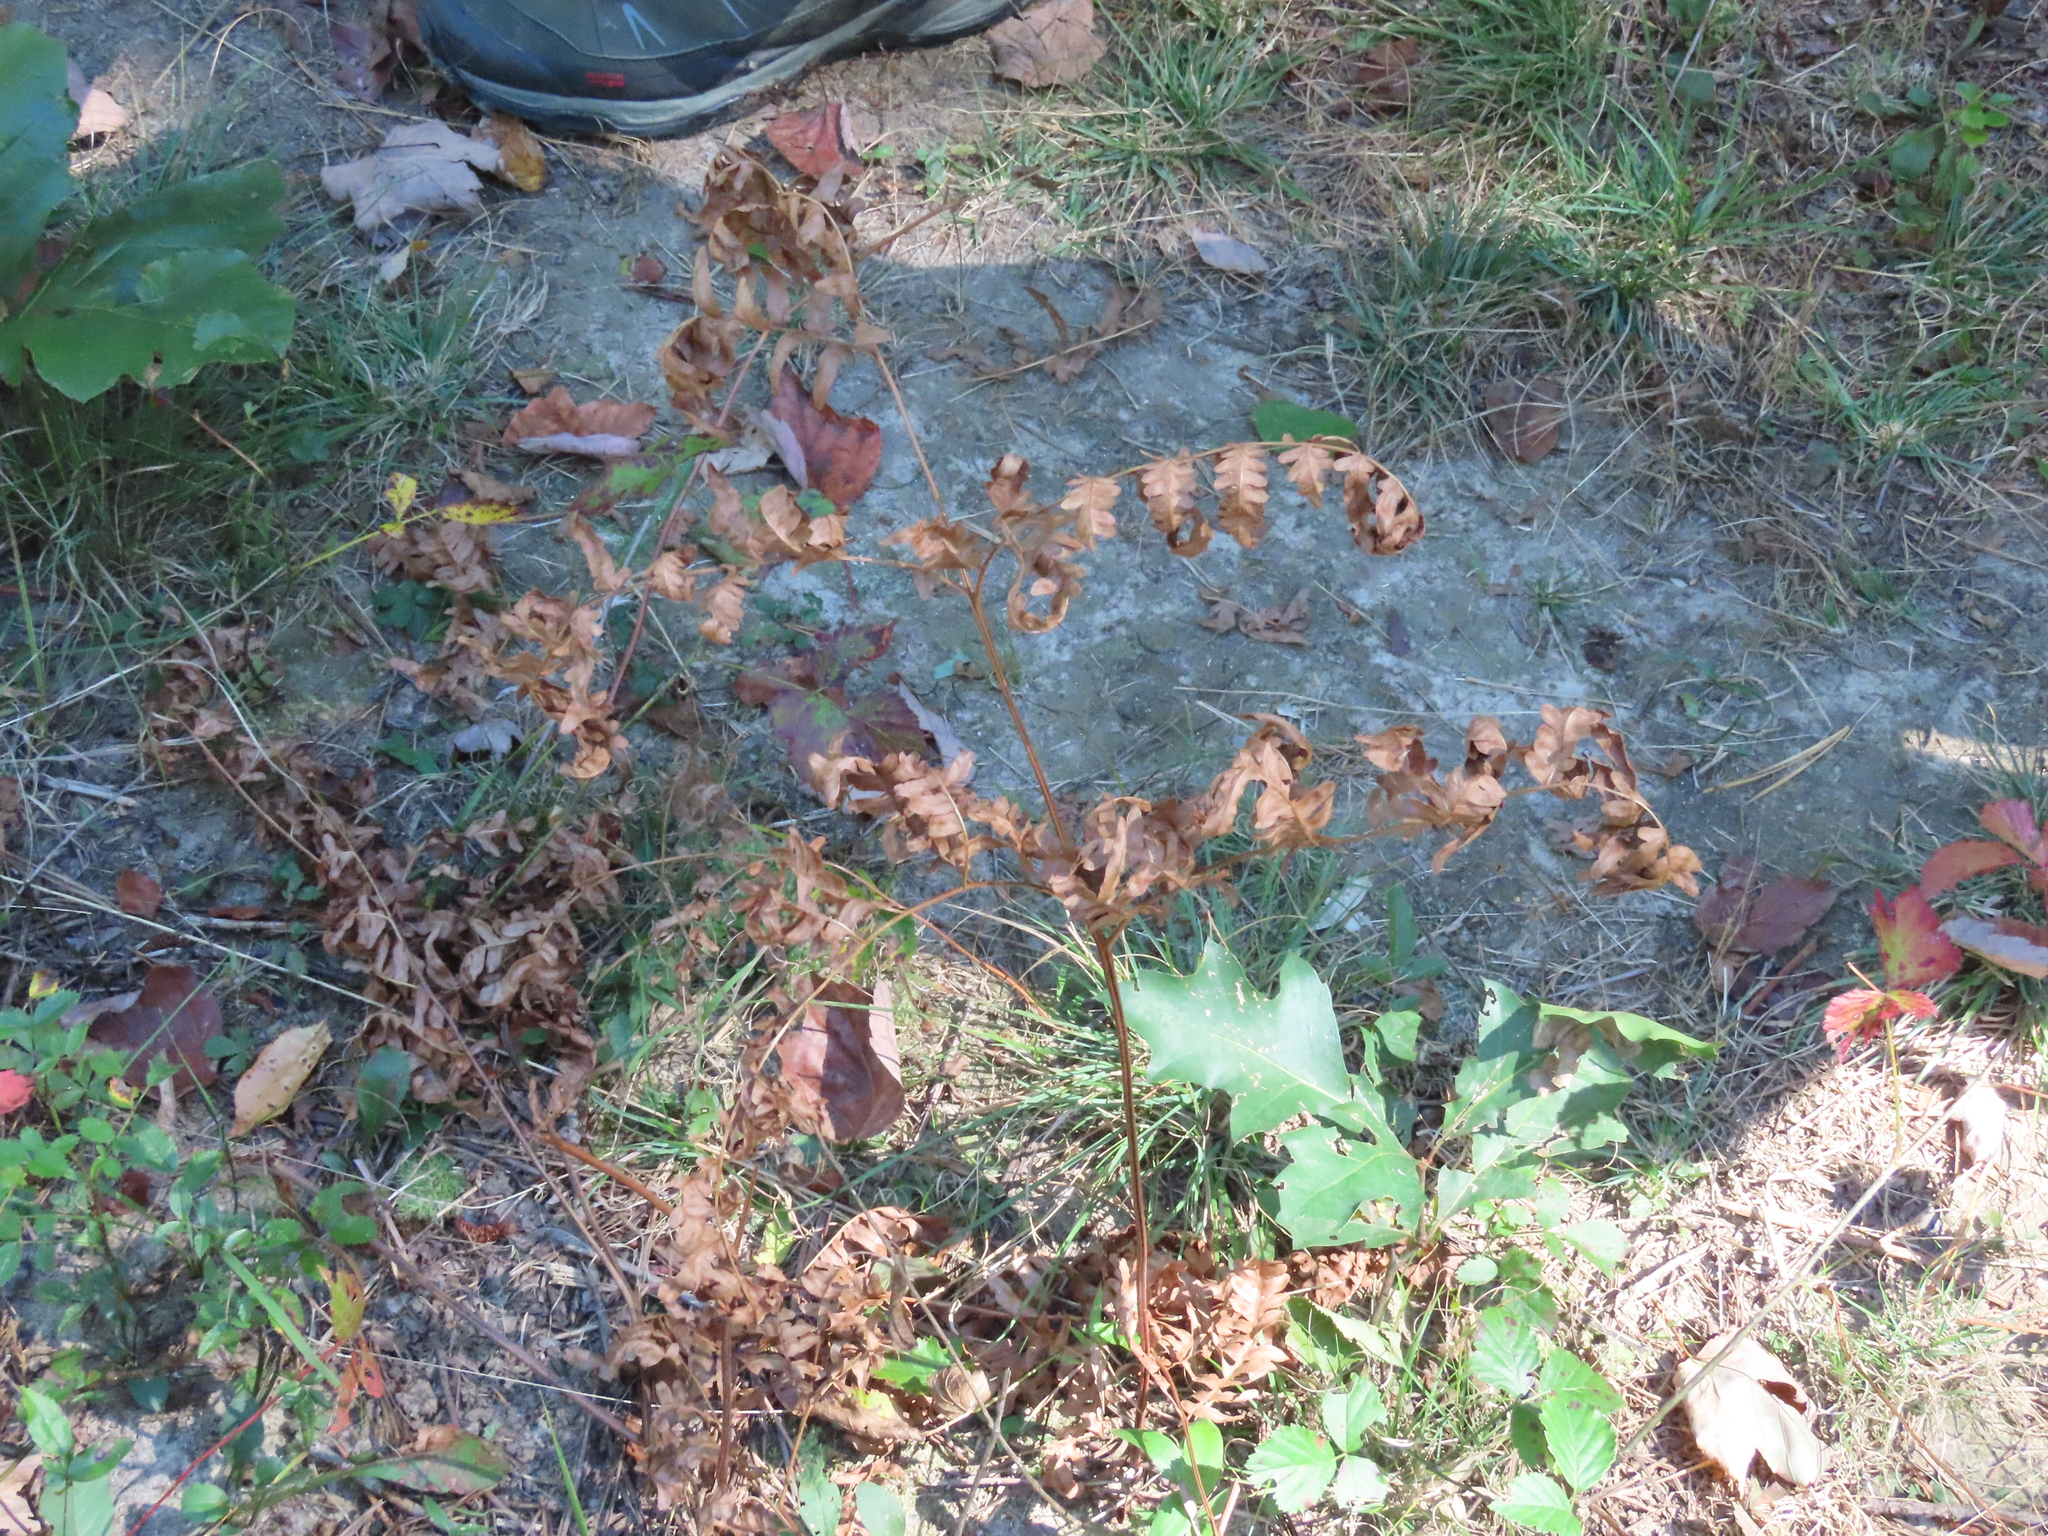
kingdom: Plantae
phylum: Tracheophyta
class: Polypodiopsida
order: Polypodiales
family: Dennstaedtiaceae
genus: Pteridium
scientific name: Pteridium aquilinum
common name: Bracken
